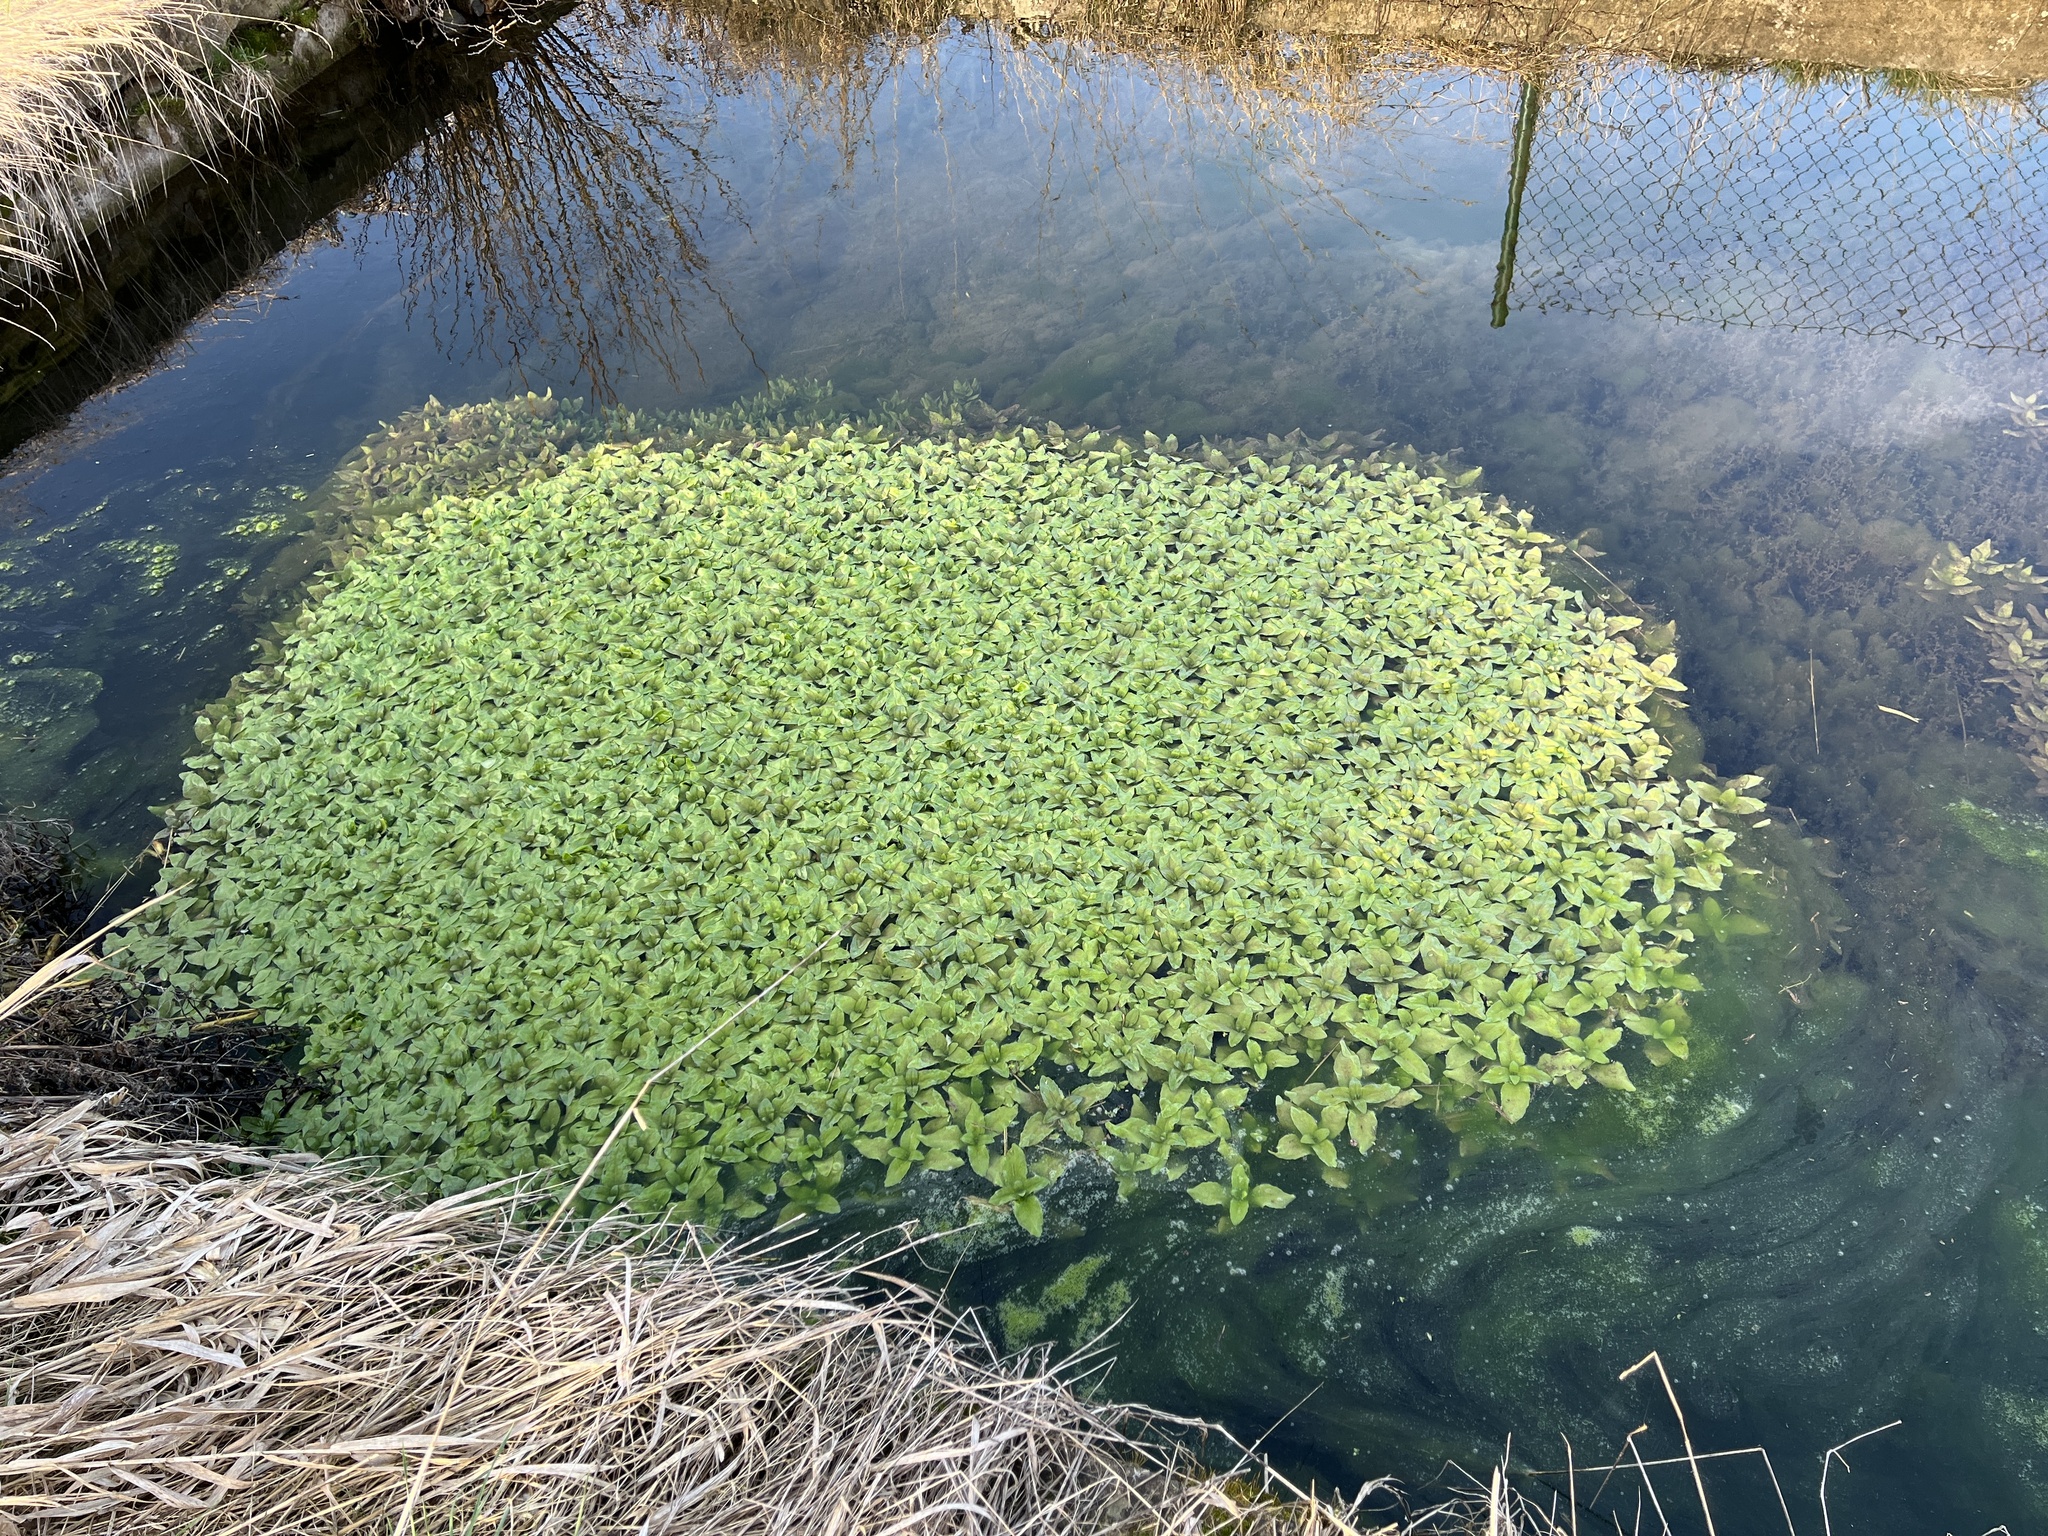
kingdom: Plantae
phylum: Tracheophyta
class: Magnoliopsida
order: Lamiales
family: Plantaginaceae
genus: Veronica
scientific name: Veronica beccabunga
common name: Brooklime
